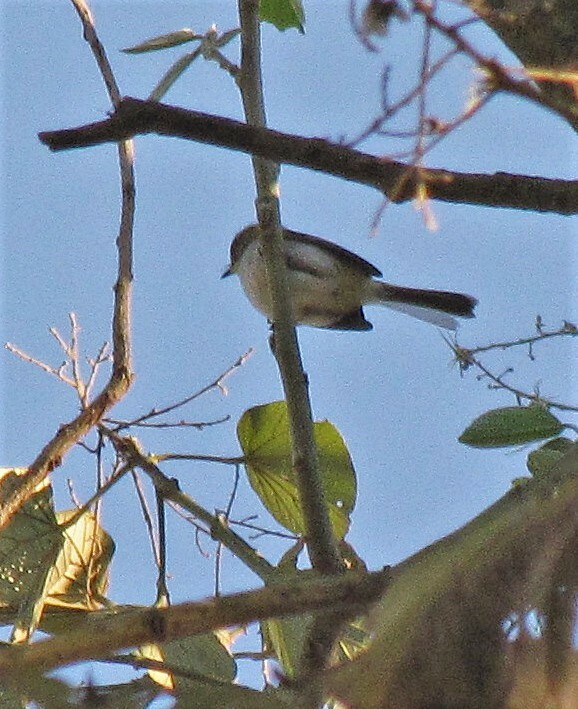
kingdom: Animalia
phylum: Chordata
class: Aves
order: Passeriformes
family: Tyrannidae
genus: Phylloscartes
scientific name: Phylloscartes sylviolus
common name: Bay-ringed tyrannulet
